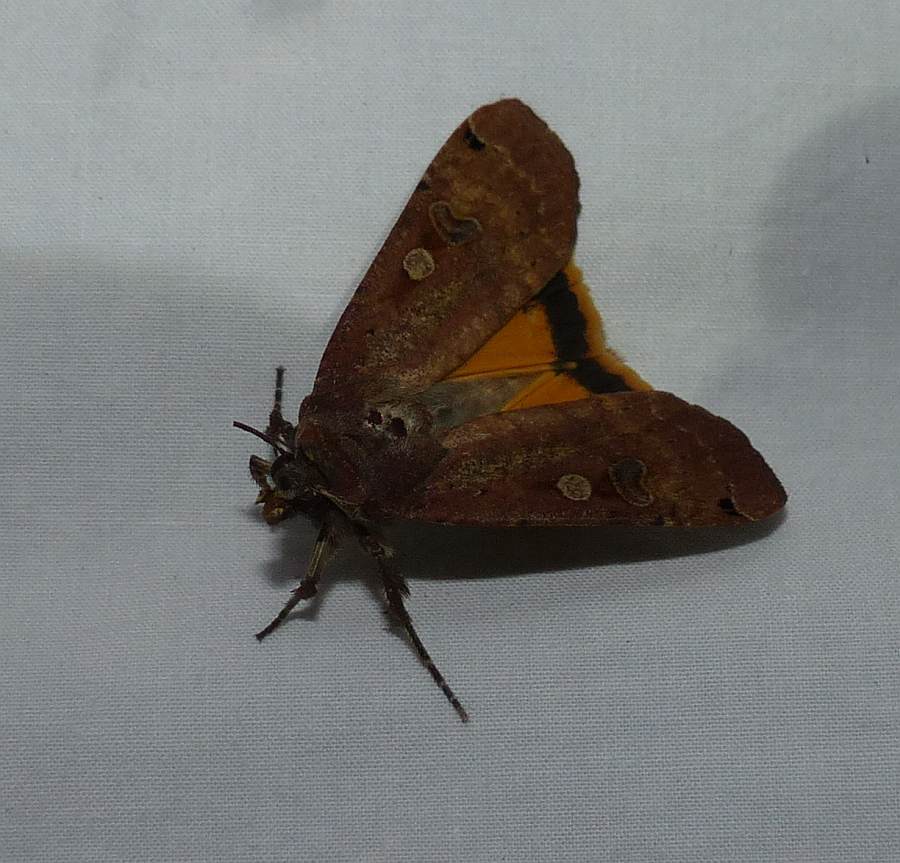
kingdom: Animalia
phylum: Arthropoda
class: Insecta
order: Lepidoptera
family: Noctuidae
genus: Noctua
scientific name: Noctua pronuba
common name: Large yellow underwing
